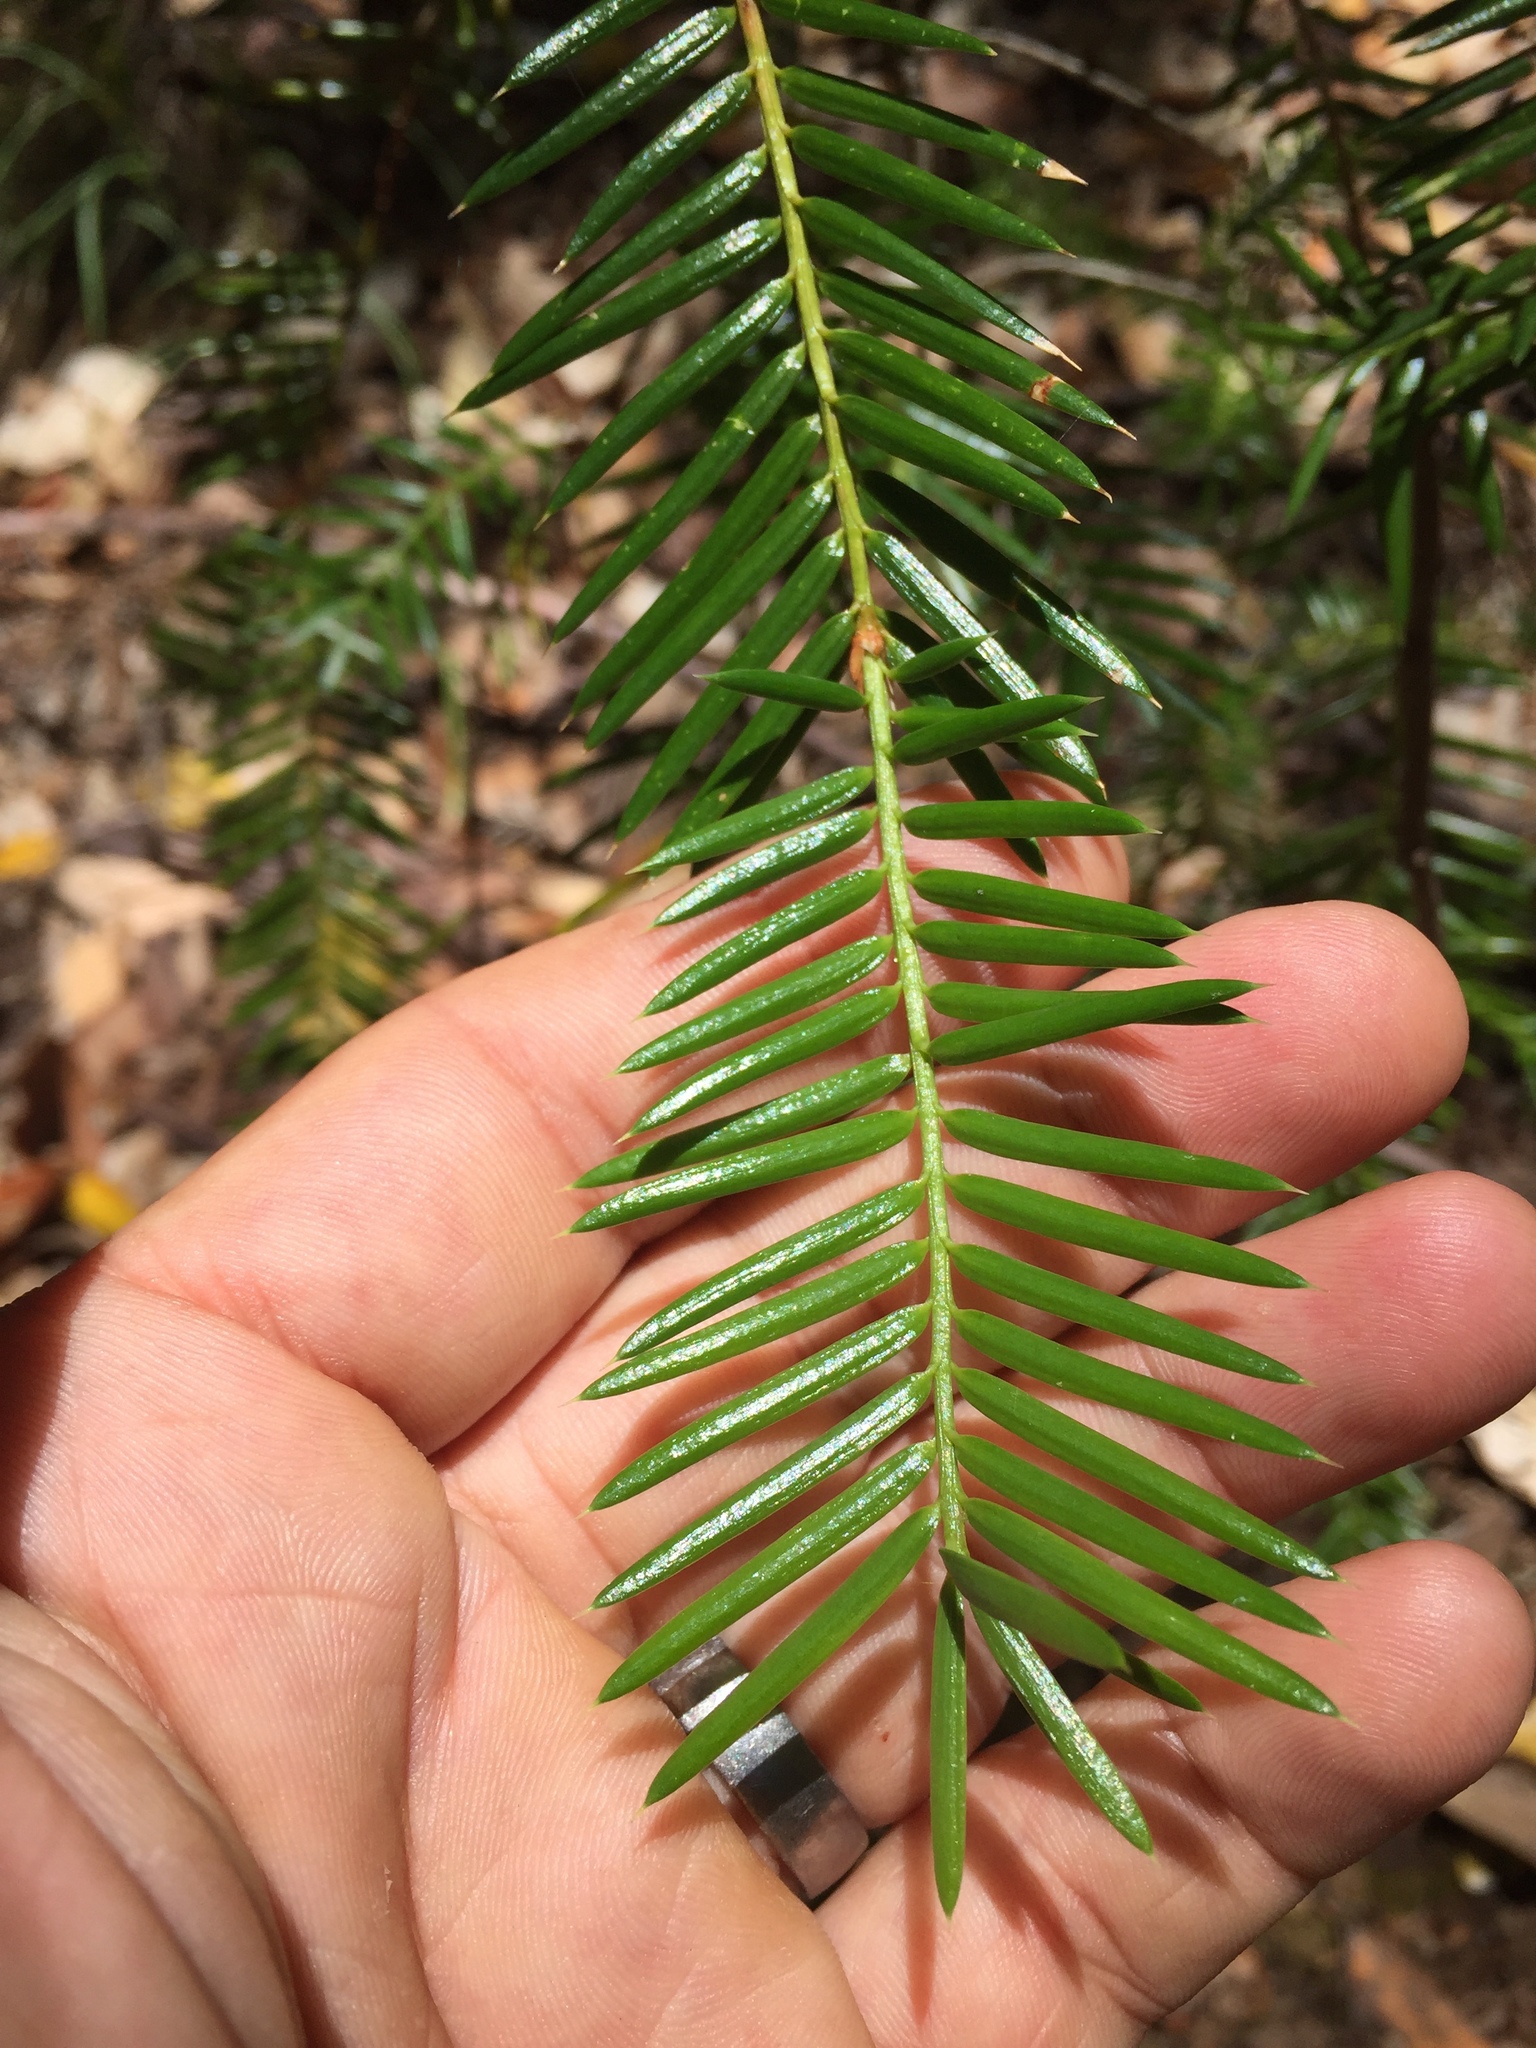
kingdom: Plantae
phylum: Tracheophyta
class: Pinopsida
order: Pinales
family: Taxaceae
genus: Torreya
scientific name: Torreya californica
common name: California torreya
